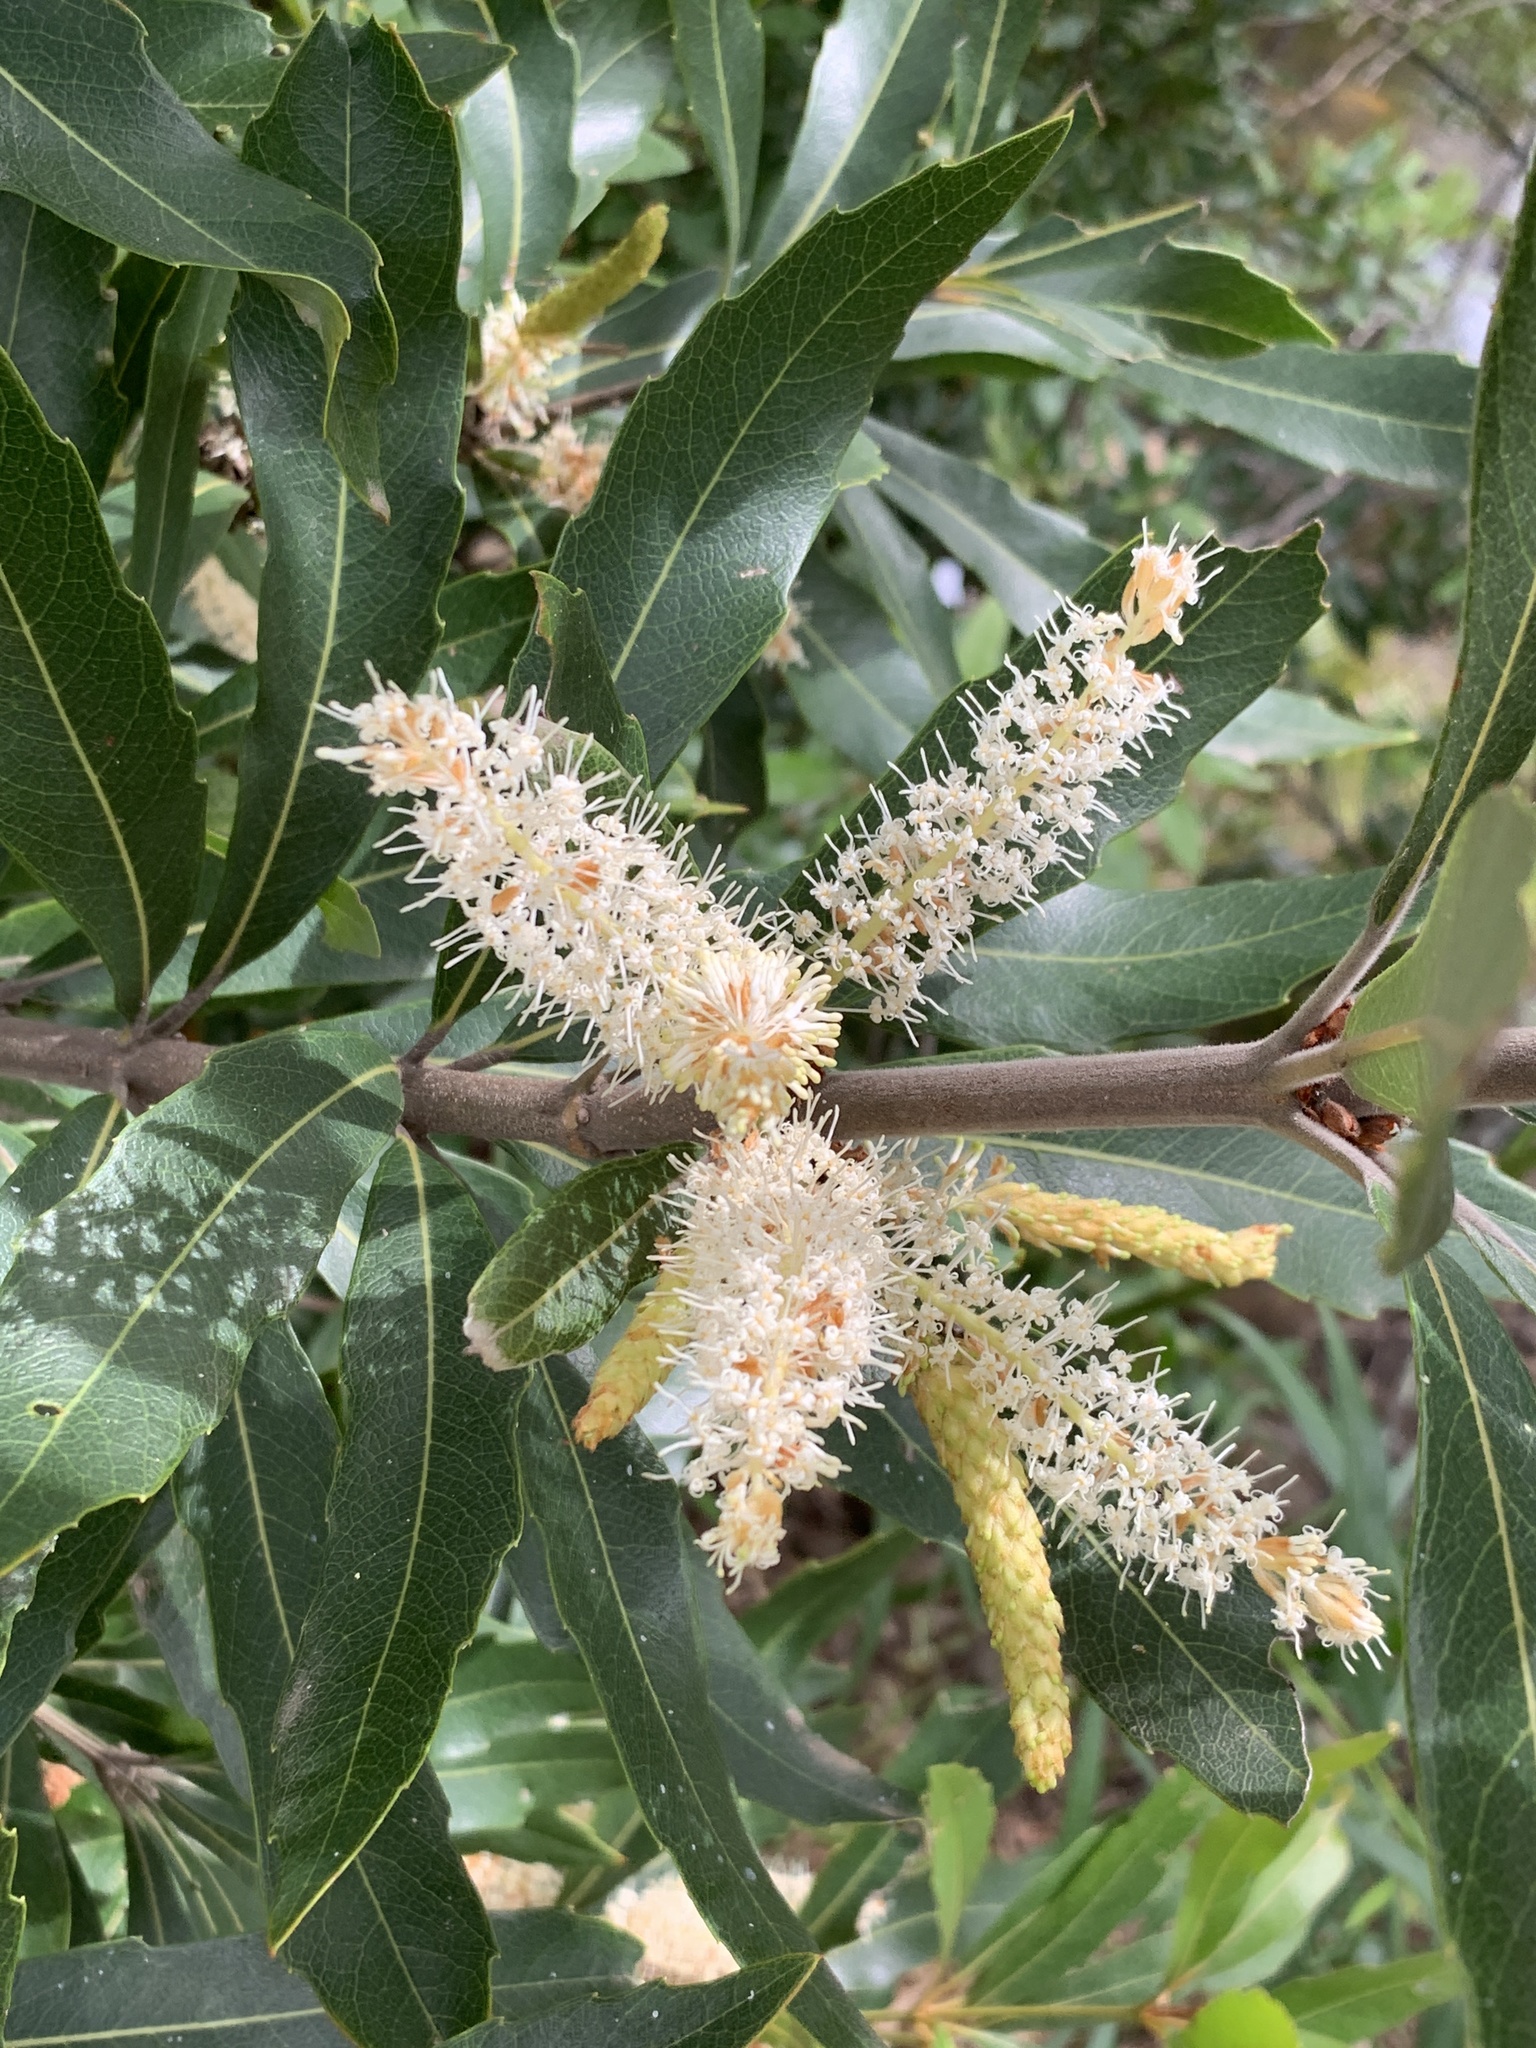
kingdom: Plantae
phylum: Tracheophyta
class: Magnoliopsida
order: Proteales
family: Proteaceae
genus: Brabejum
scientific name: Brabejum stellatifolium
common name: Wild almond
